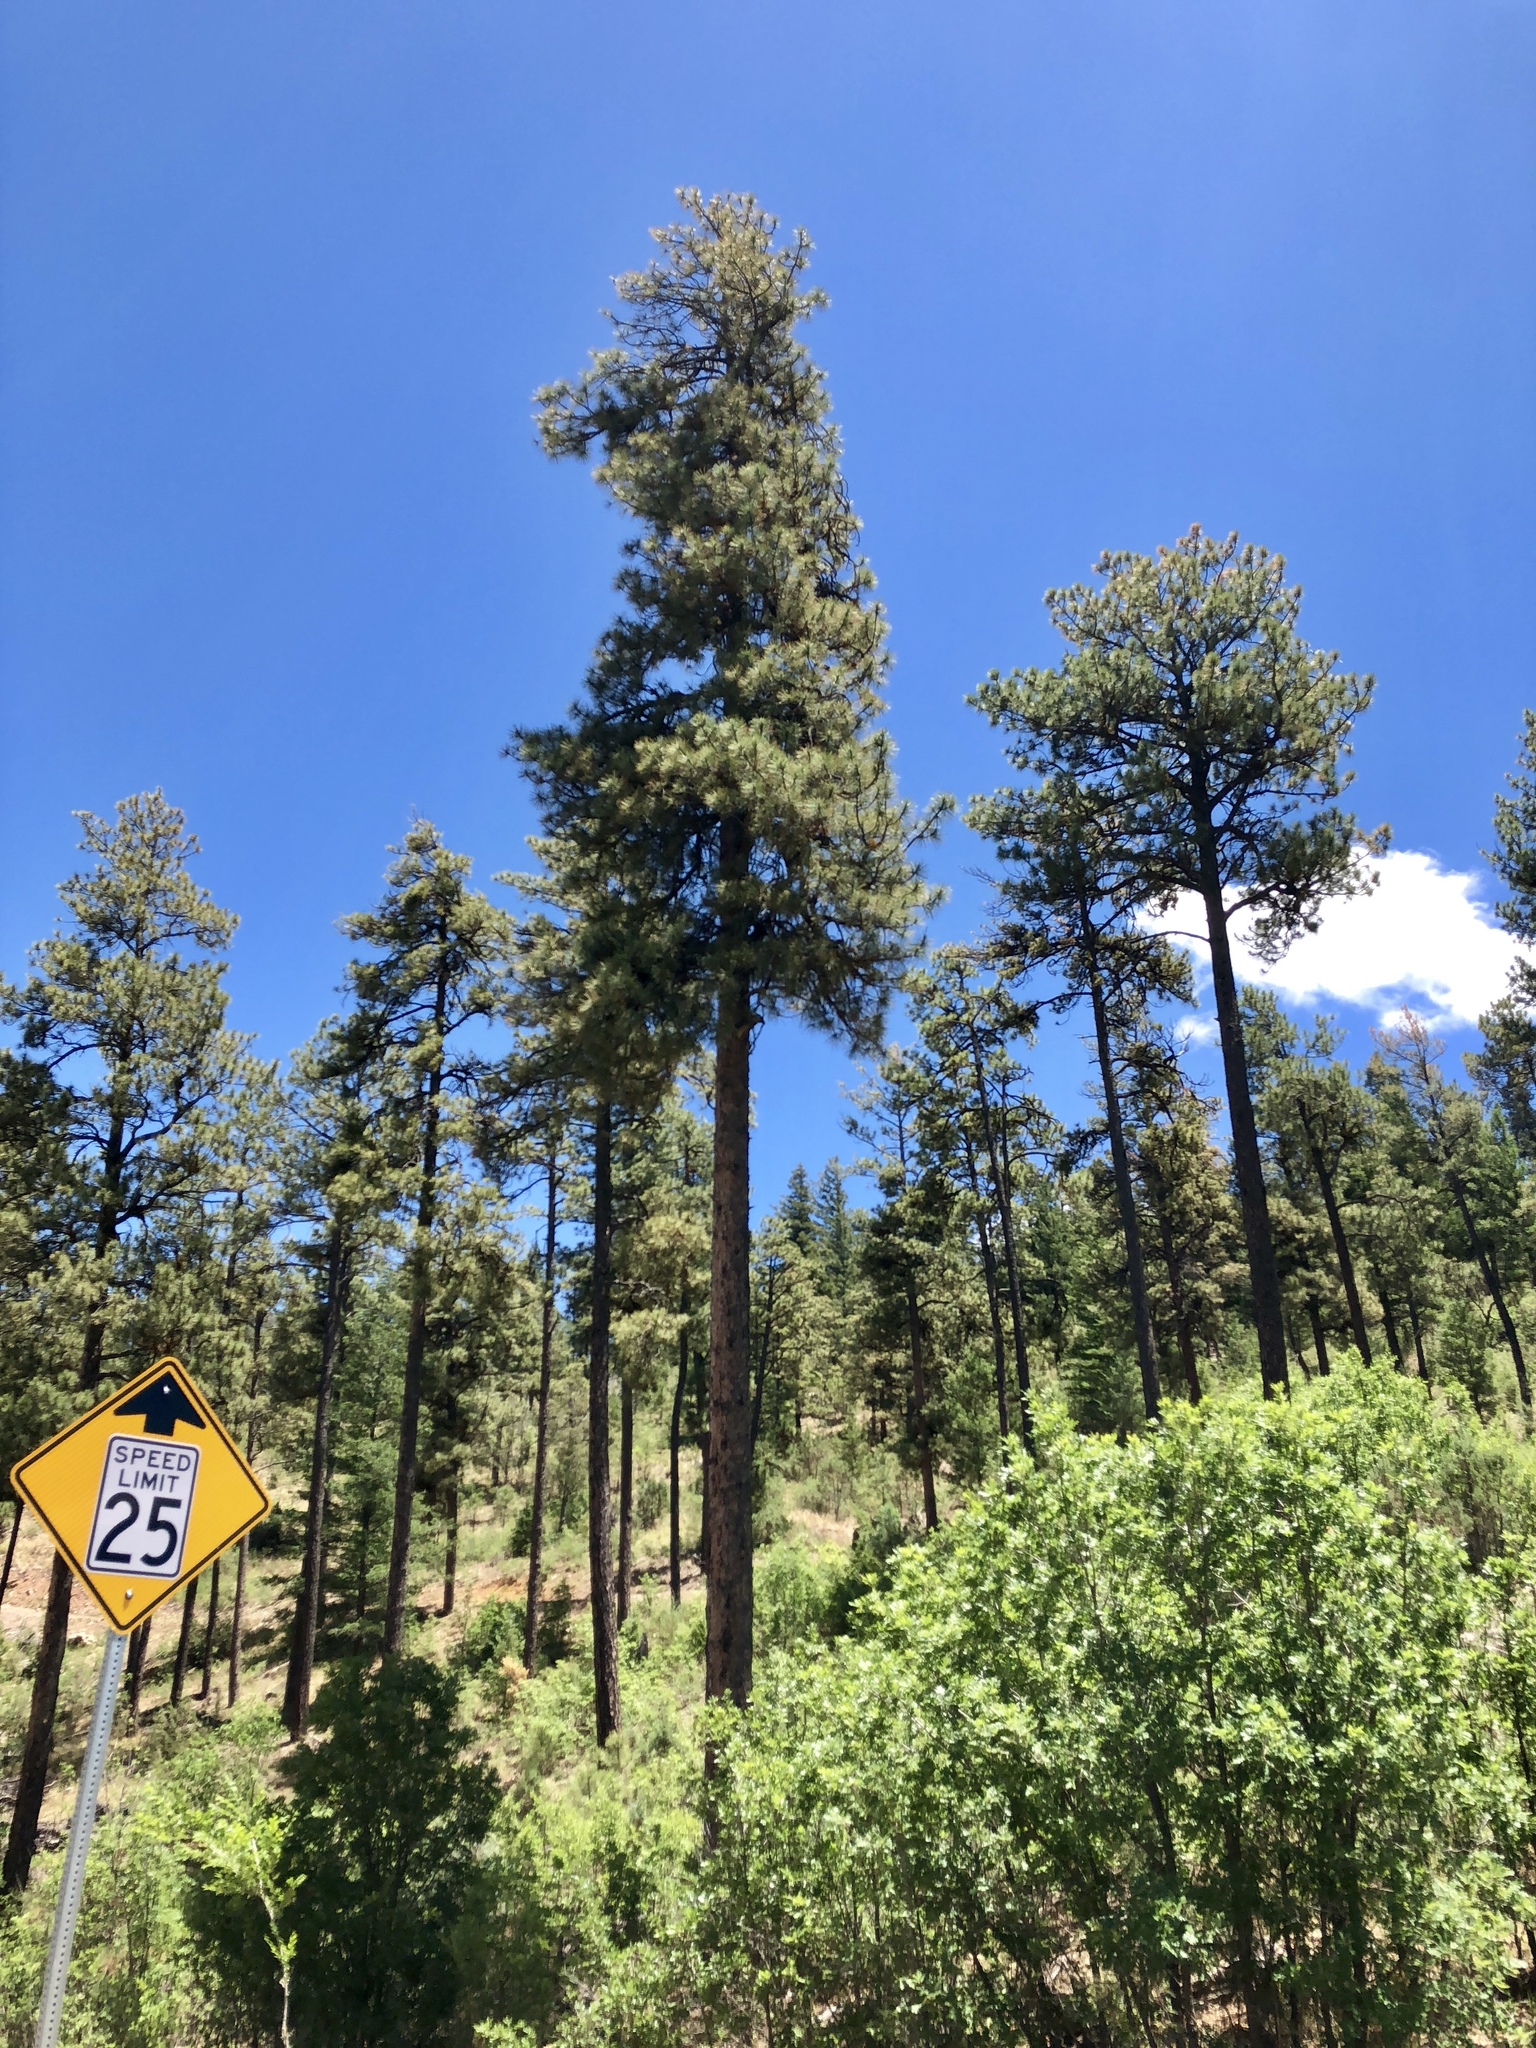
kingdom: Plantae
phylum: Tracheophyta
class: Pinopsida
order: Pinales
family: Pinaceae
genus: Pinus
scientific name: Pinus ponderosa
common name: Western yellow-pine
